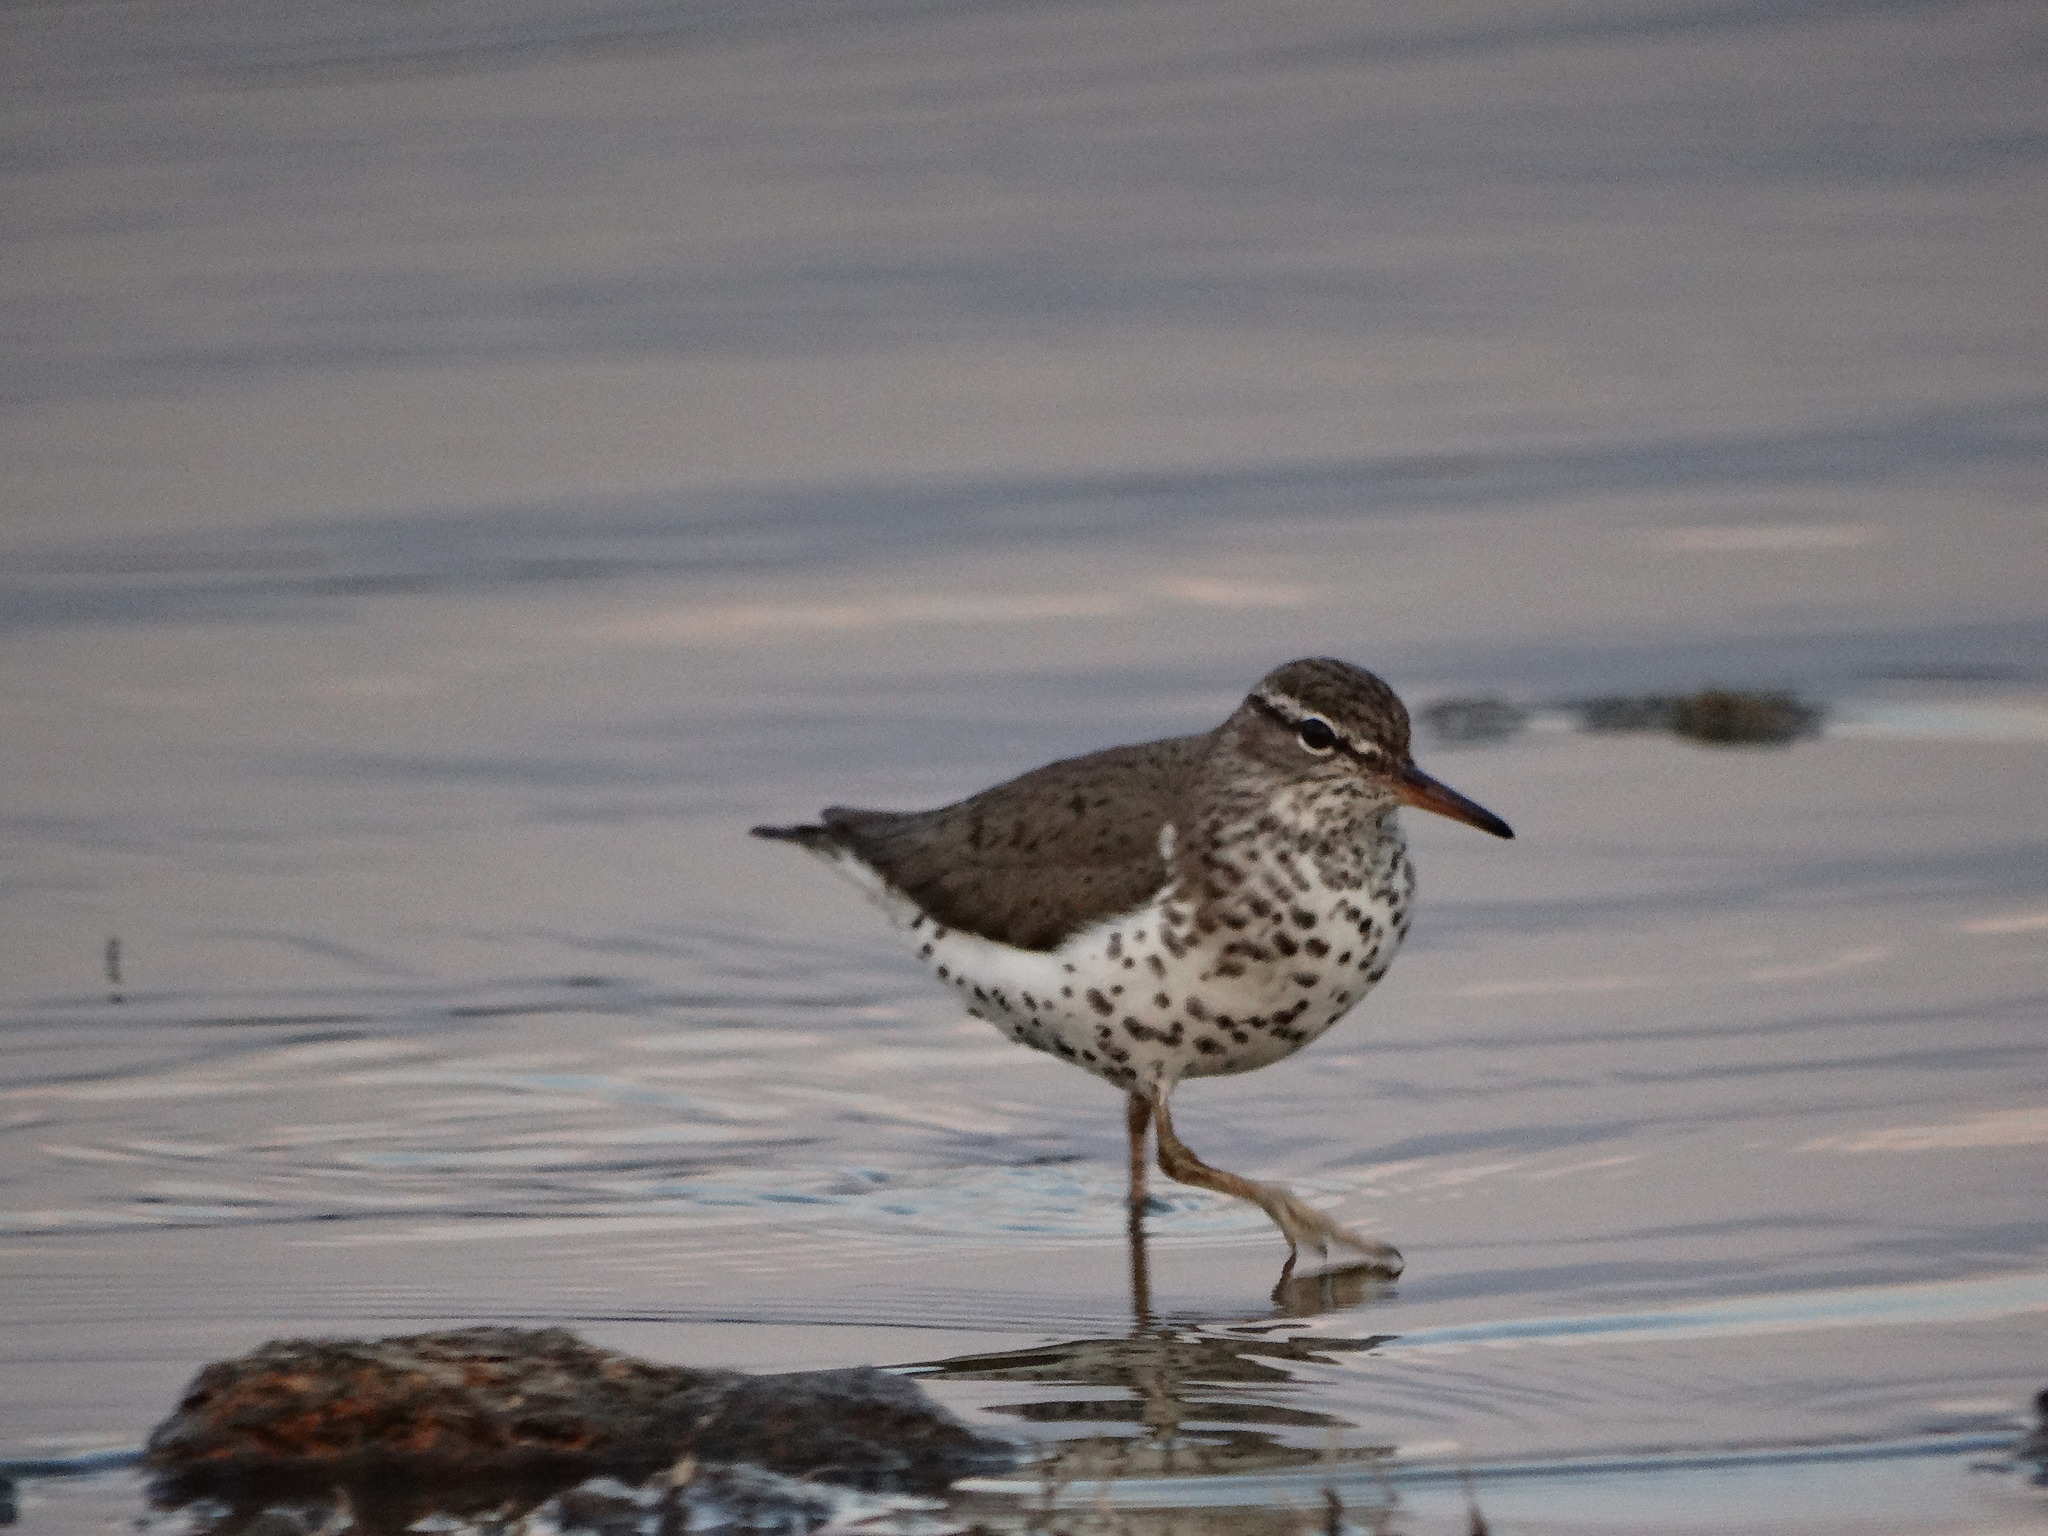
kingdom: Animalia
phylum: Chordata
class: Aves
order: Charadriiformes
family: Scolopacidae
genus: Actitis
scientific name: Actitis macularius
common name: Spotted sandpiper
